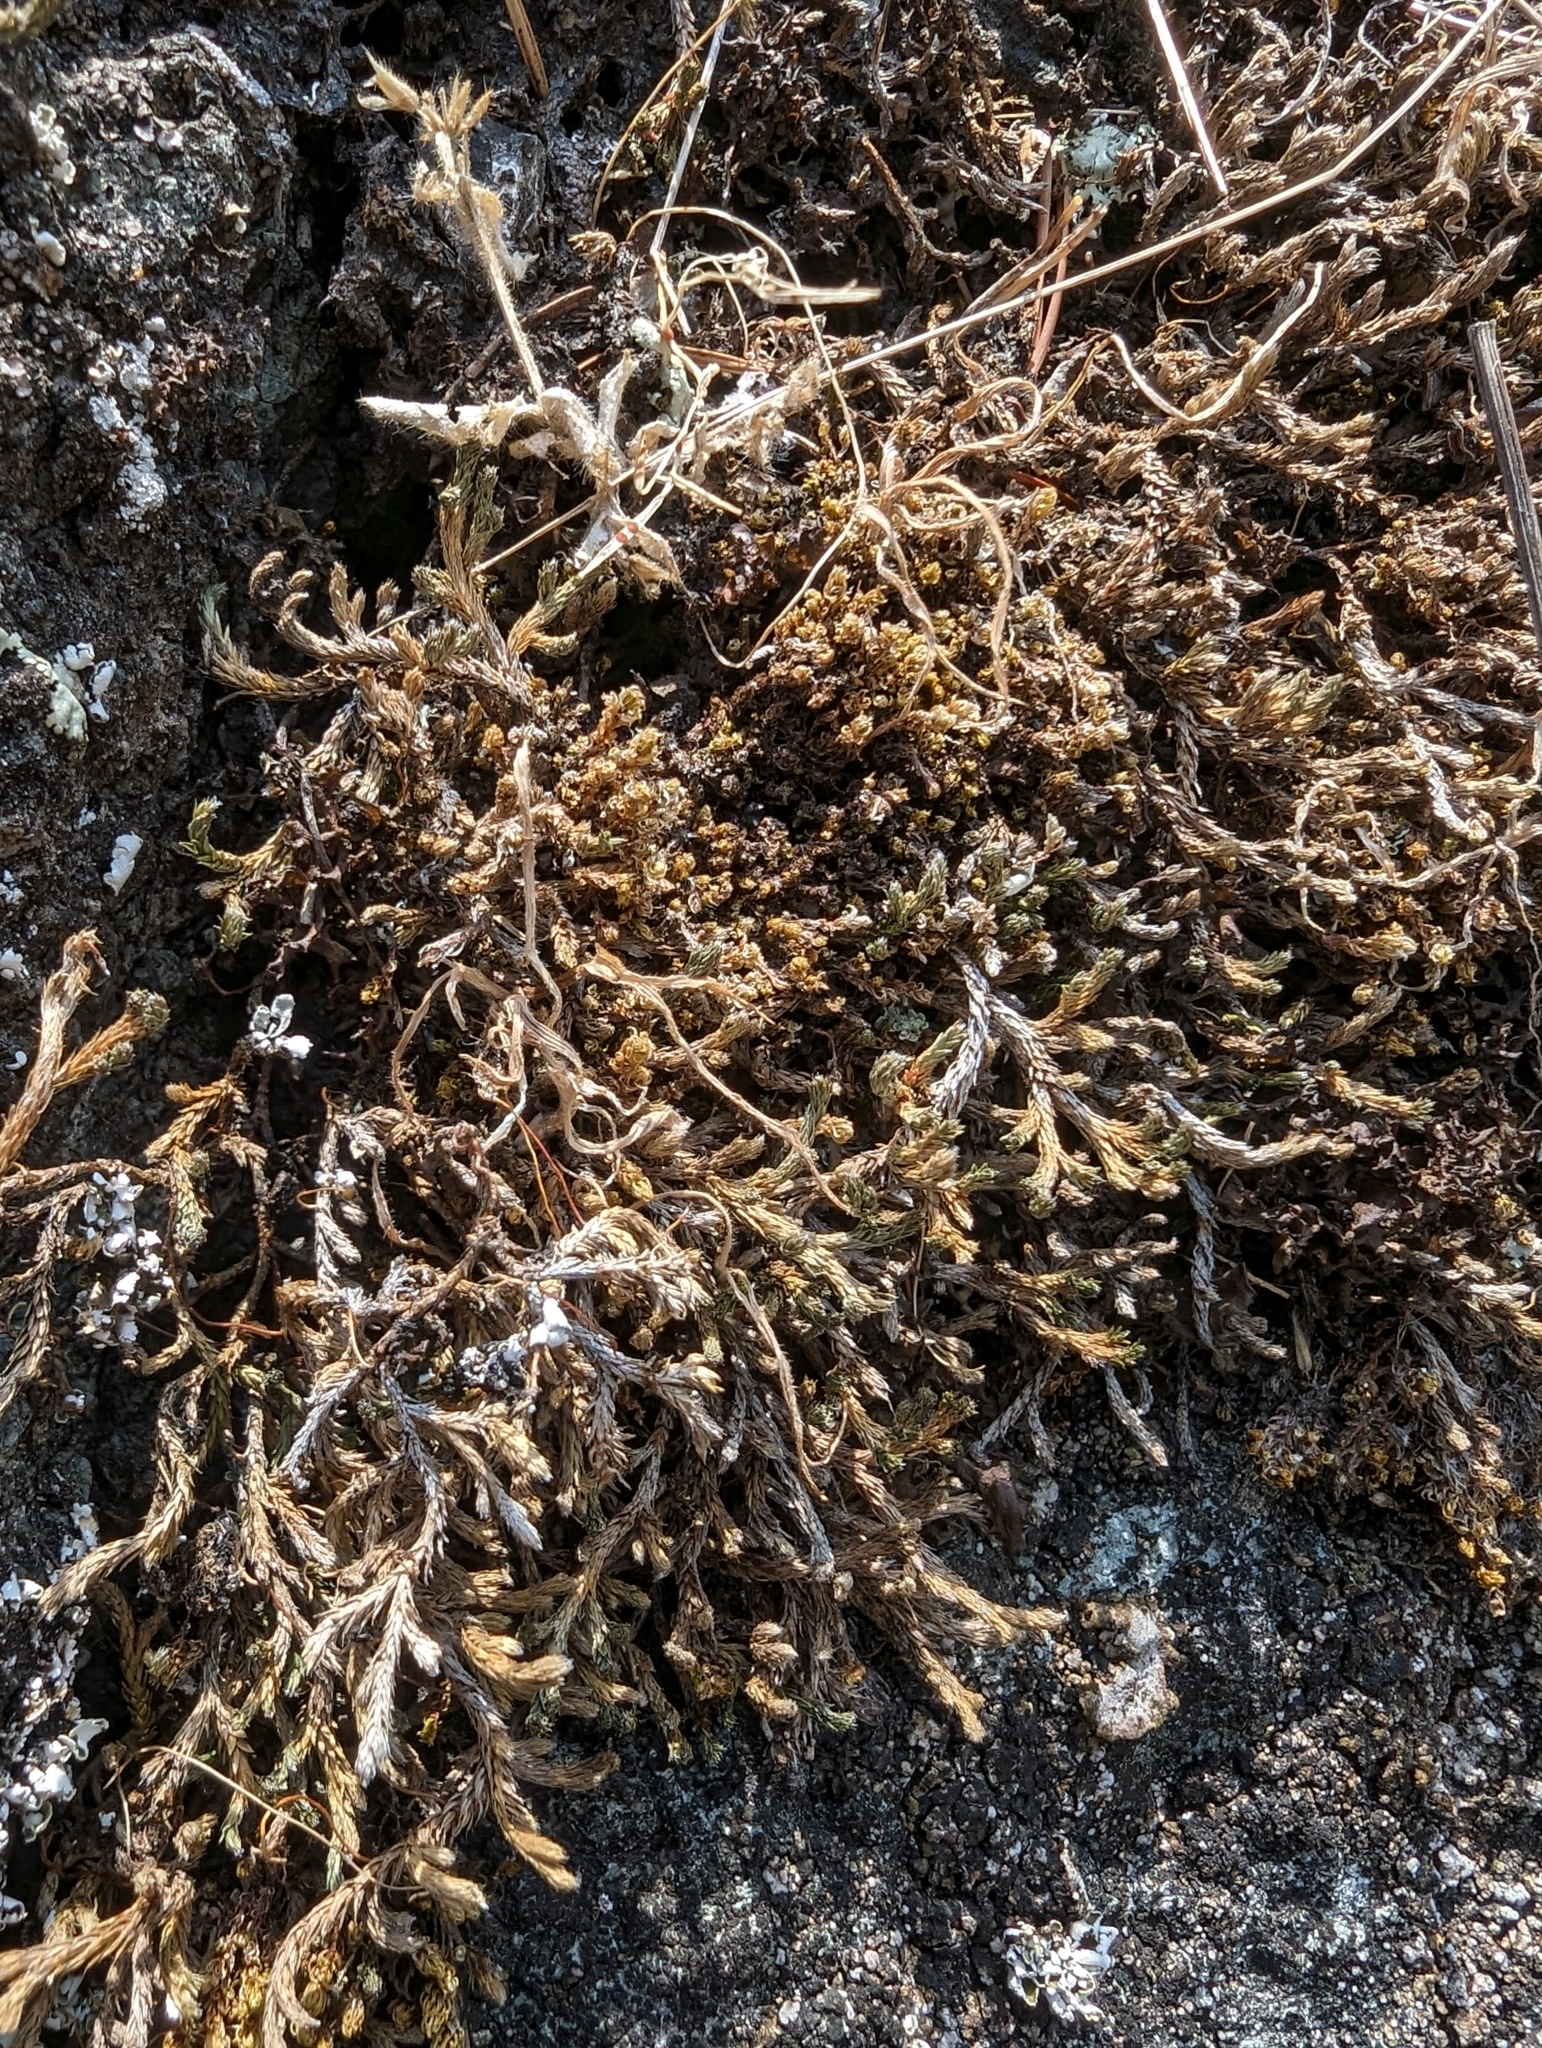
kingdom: Plantae
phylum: Tracheophyta
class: Lycopodiopsida
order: Selaginellales
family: Selaginellaceae
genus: Selaginella
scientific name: Selaginella wallacei
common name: Wallace's selaginella
